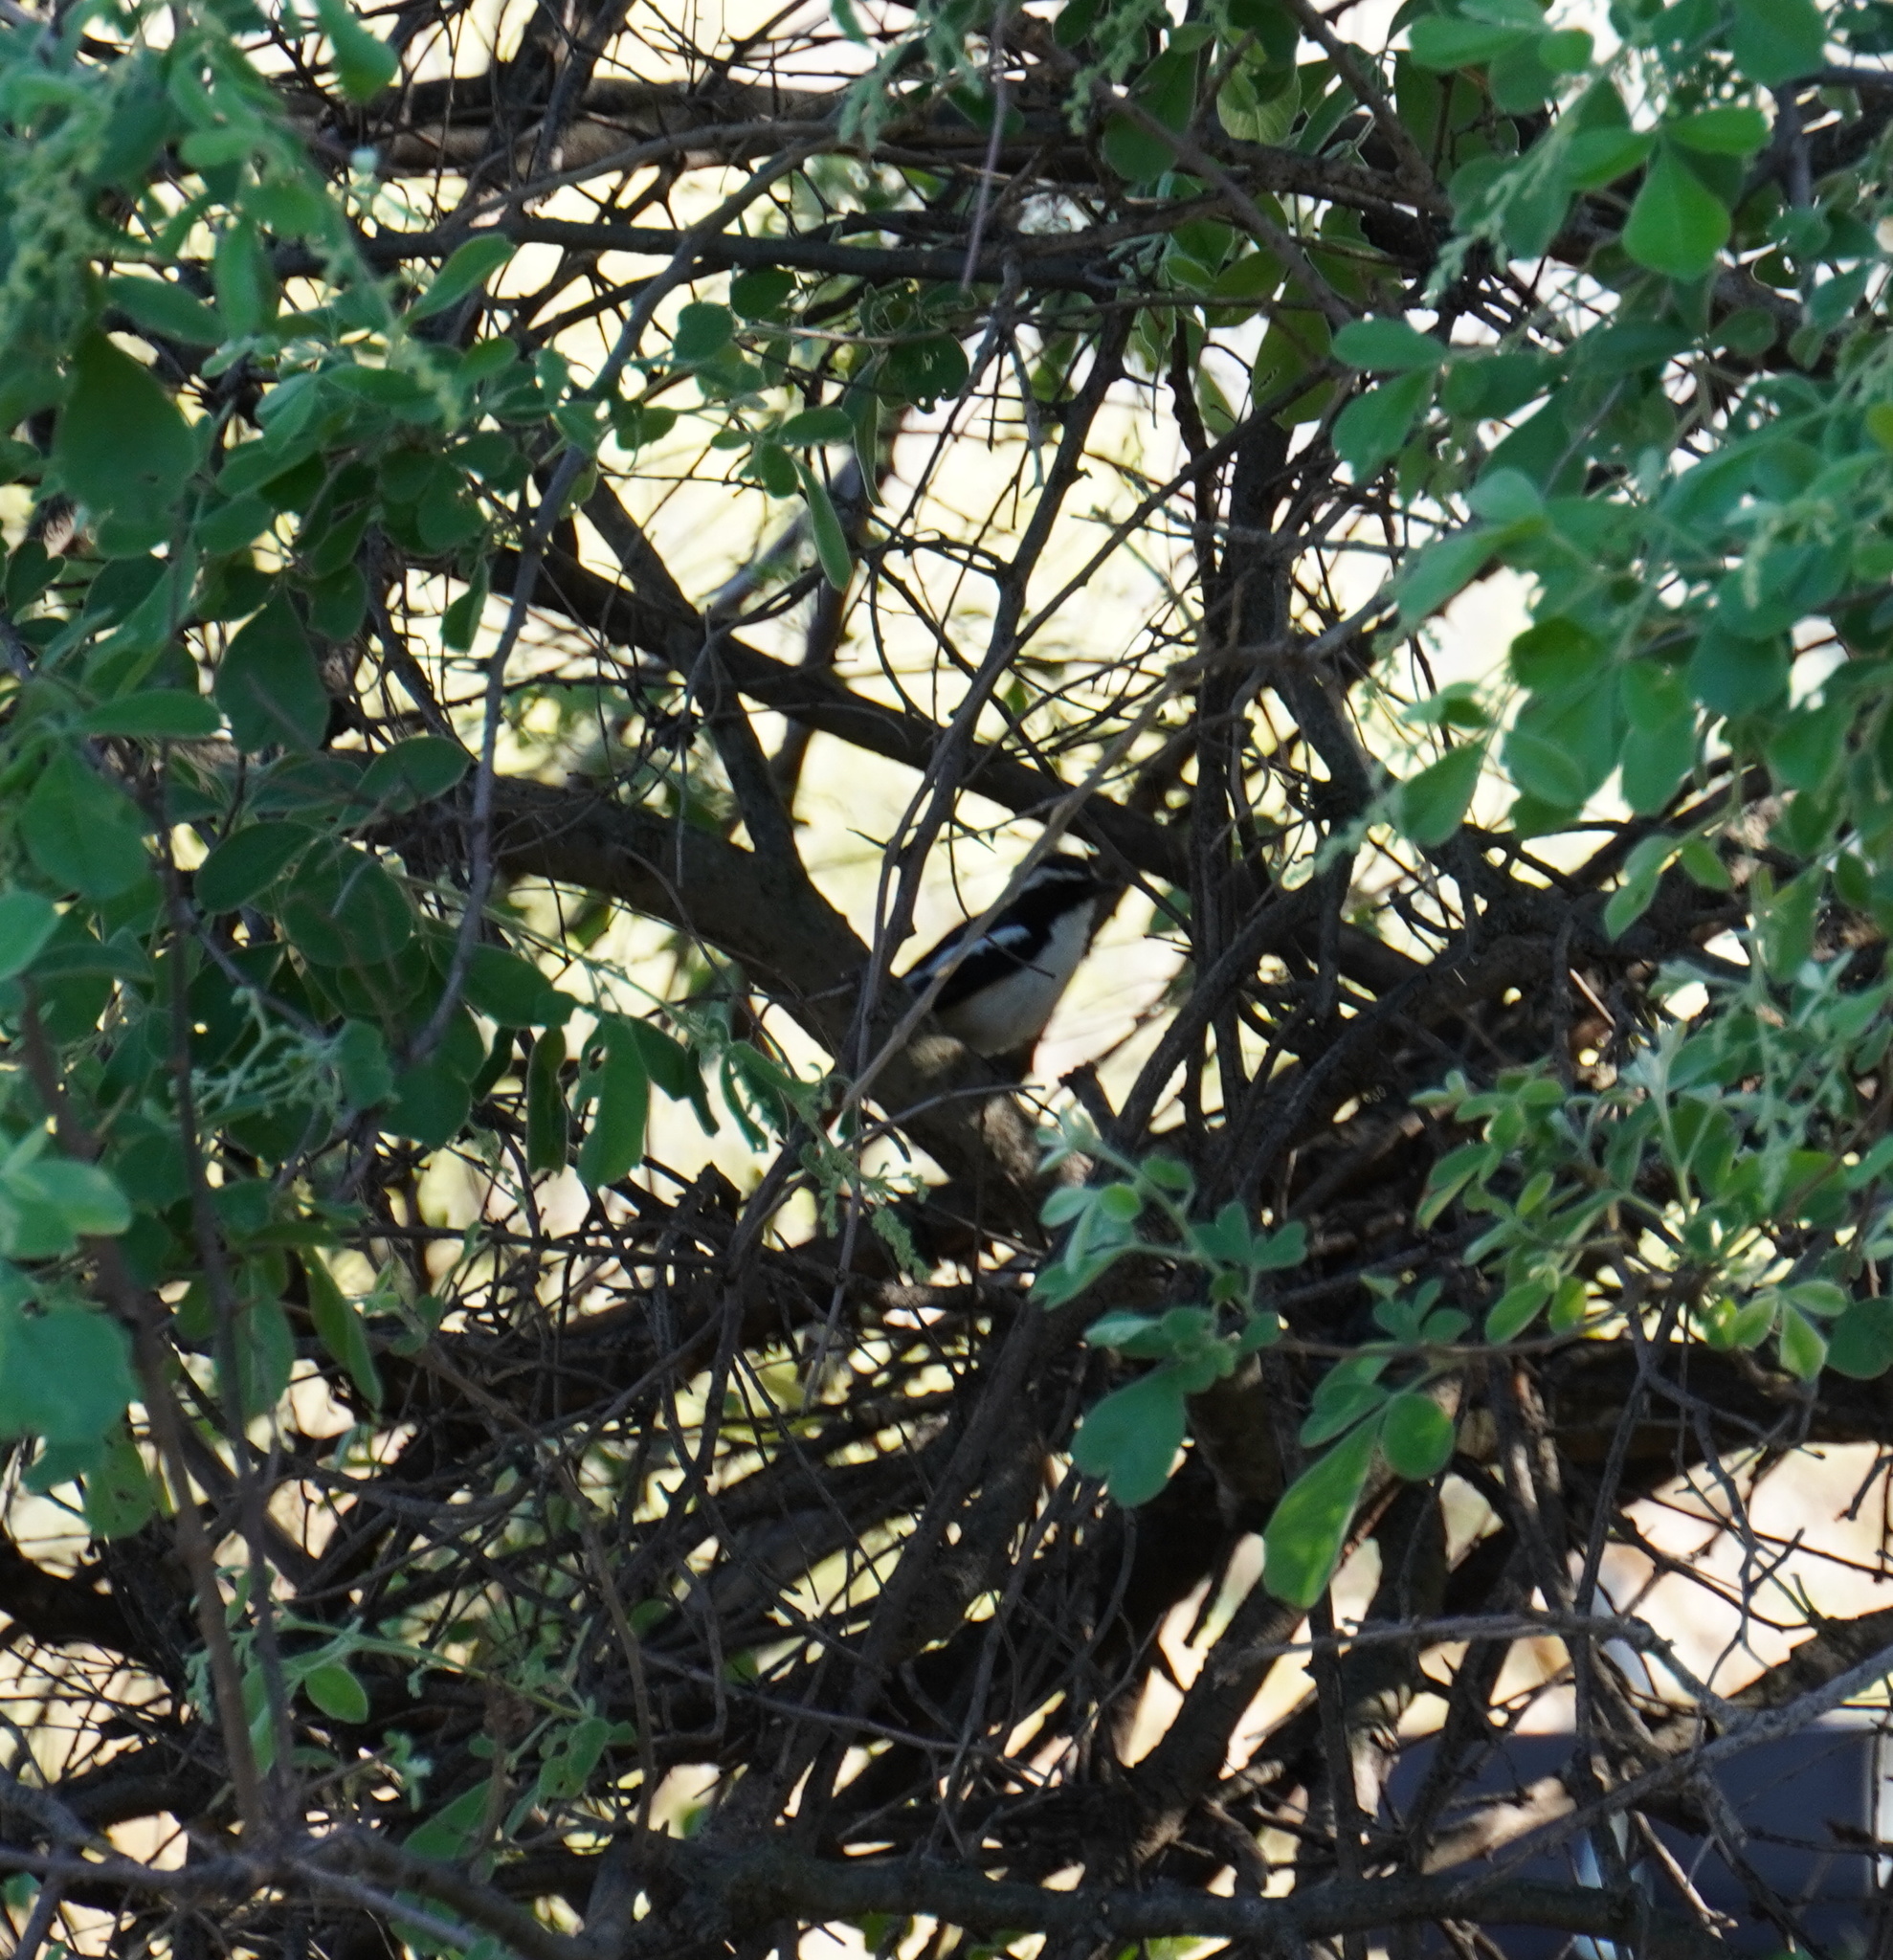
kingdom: Animalia
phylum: Chordata
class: Aves
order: Passeriformes
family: Muscicapidae
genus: Cossypha
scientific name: Cossypha humeralis
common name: White-throated robin-chat
